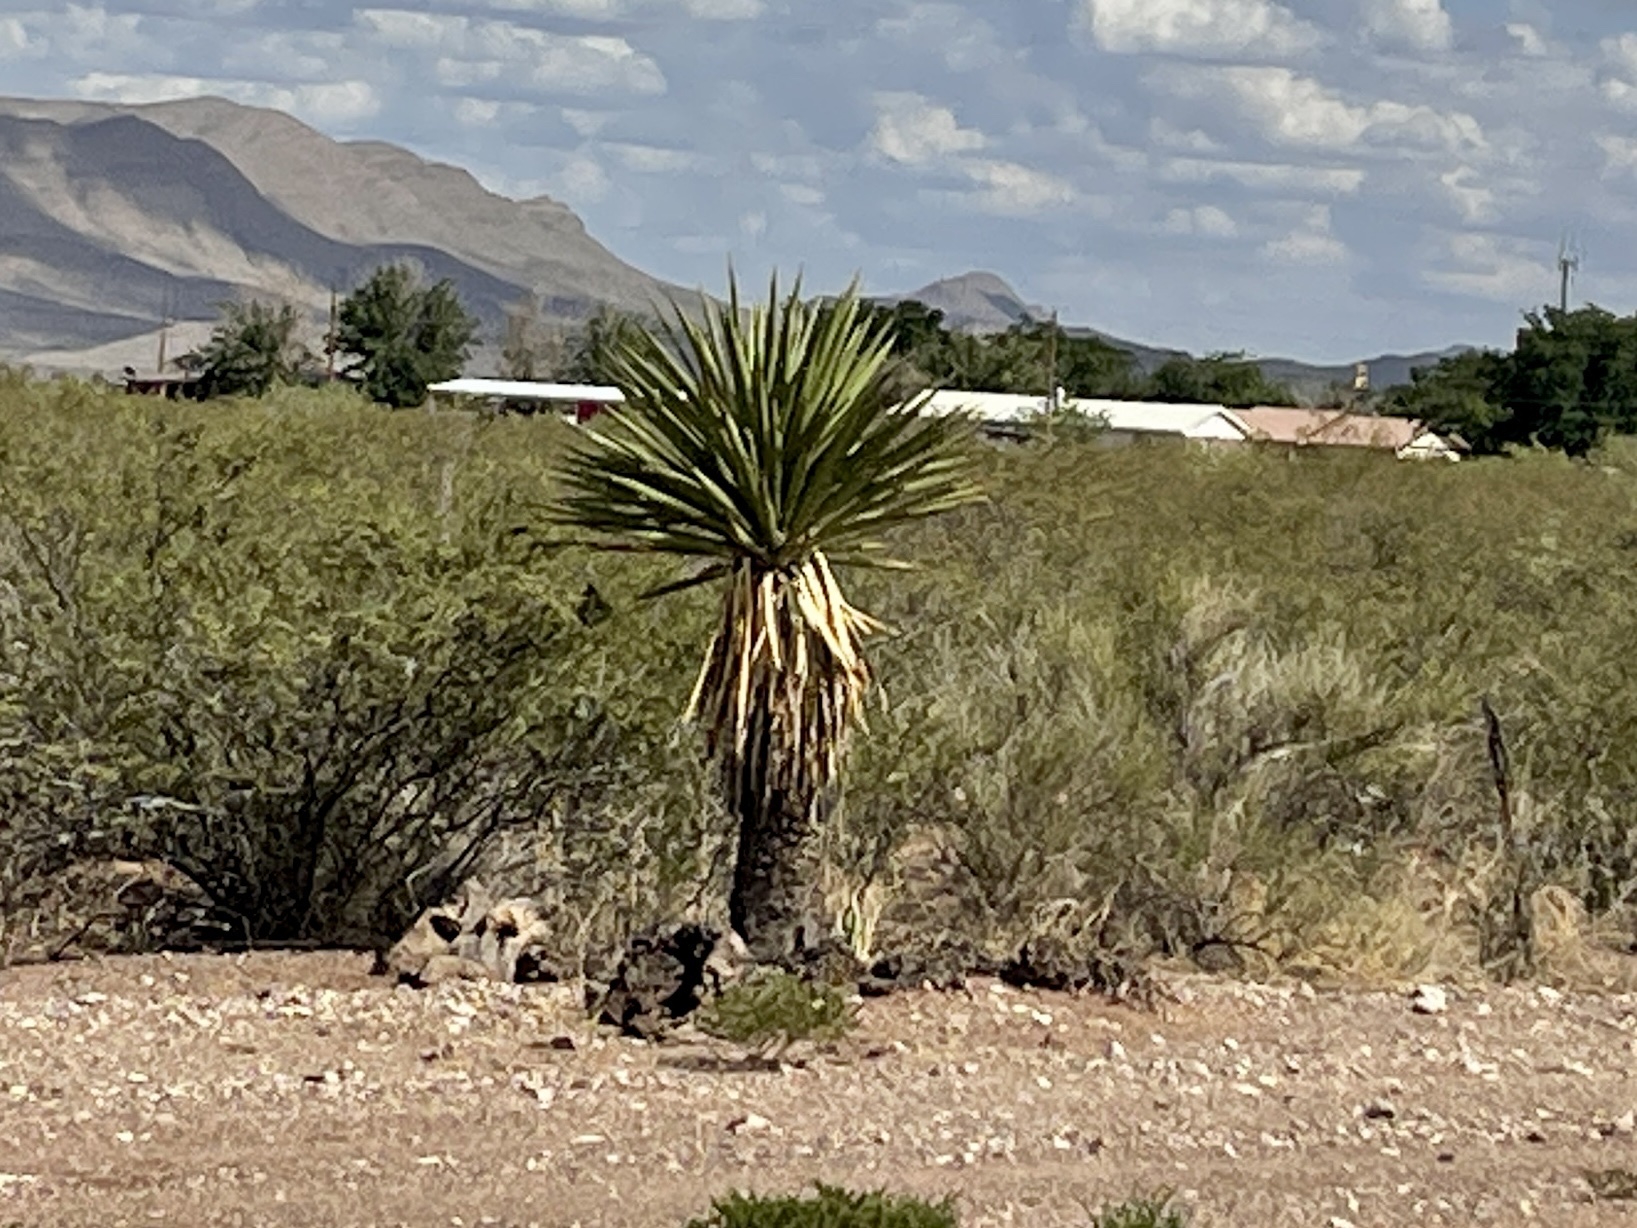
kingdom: Plantae
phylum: Tracheophyta
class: Liliopsida
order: Asparagales
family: Asparagaceae
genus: Yucca
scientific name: Yucca faxoniana
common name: Spanish dagger
